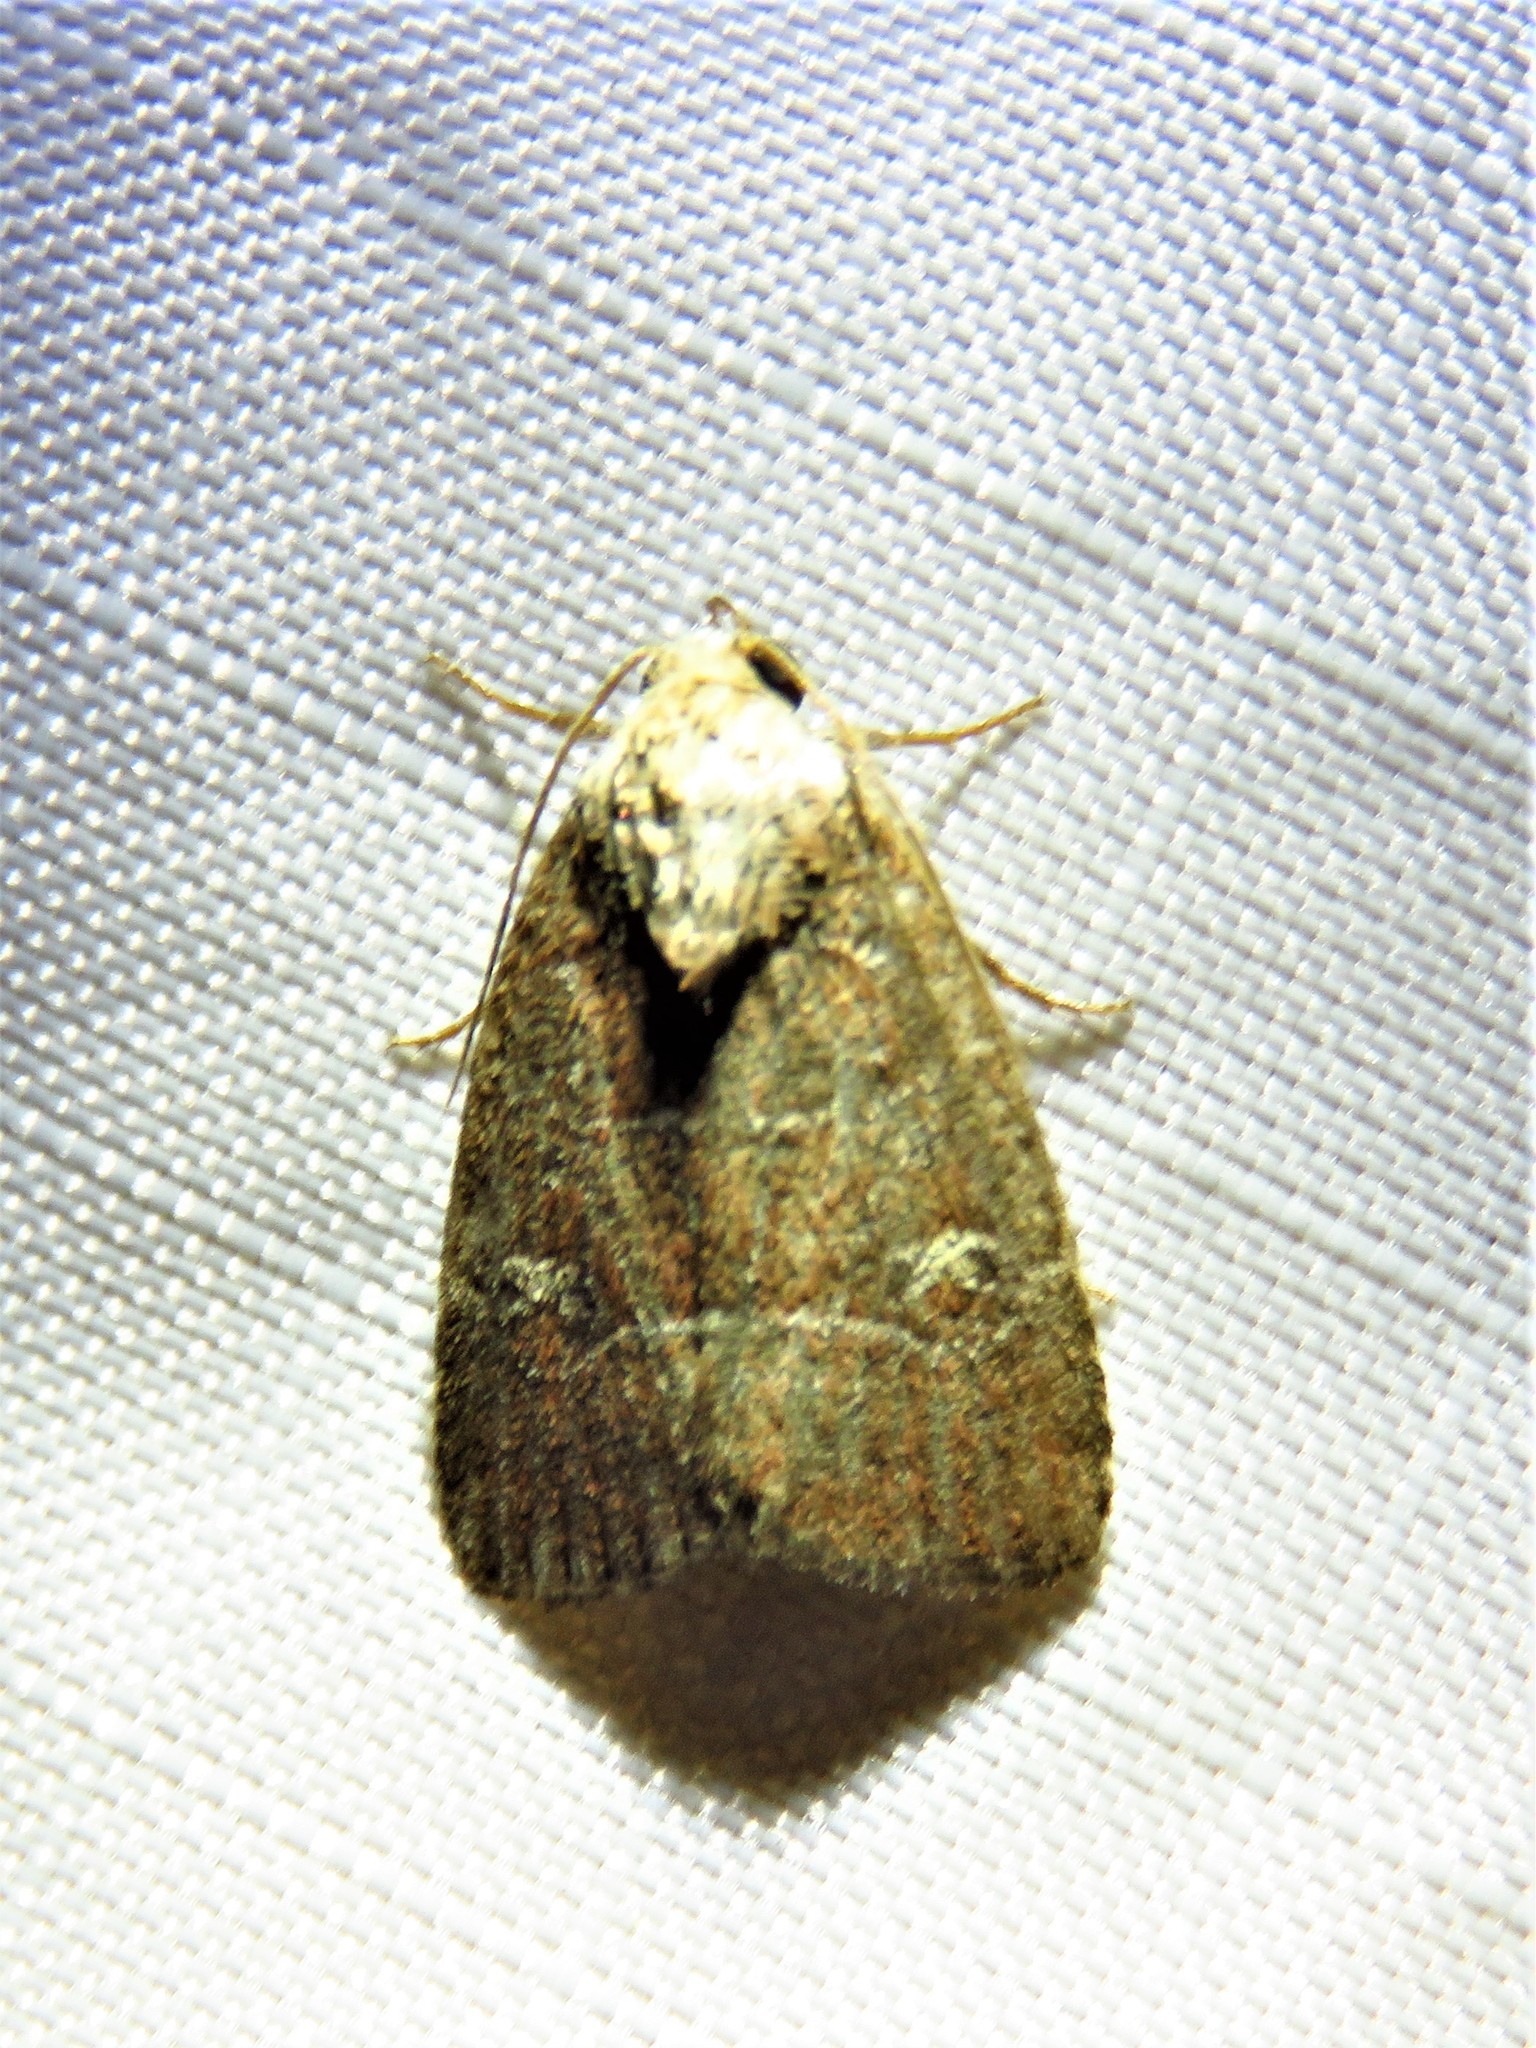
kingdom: Animalia
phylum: Arthropoda
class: Insecta
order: Lepidoptera
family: Noctuidae
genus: Elaphria
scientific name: Elaphria grata
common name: Grateful midget moth
